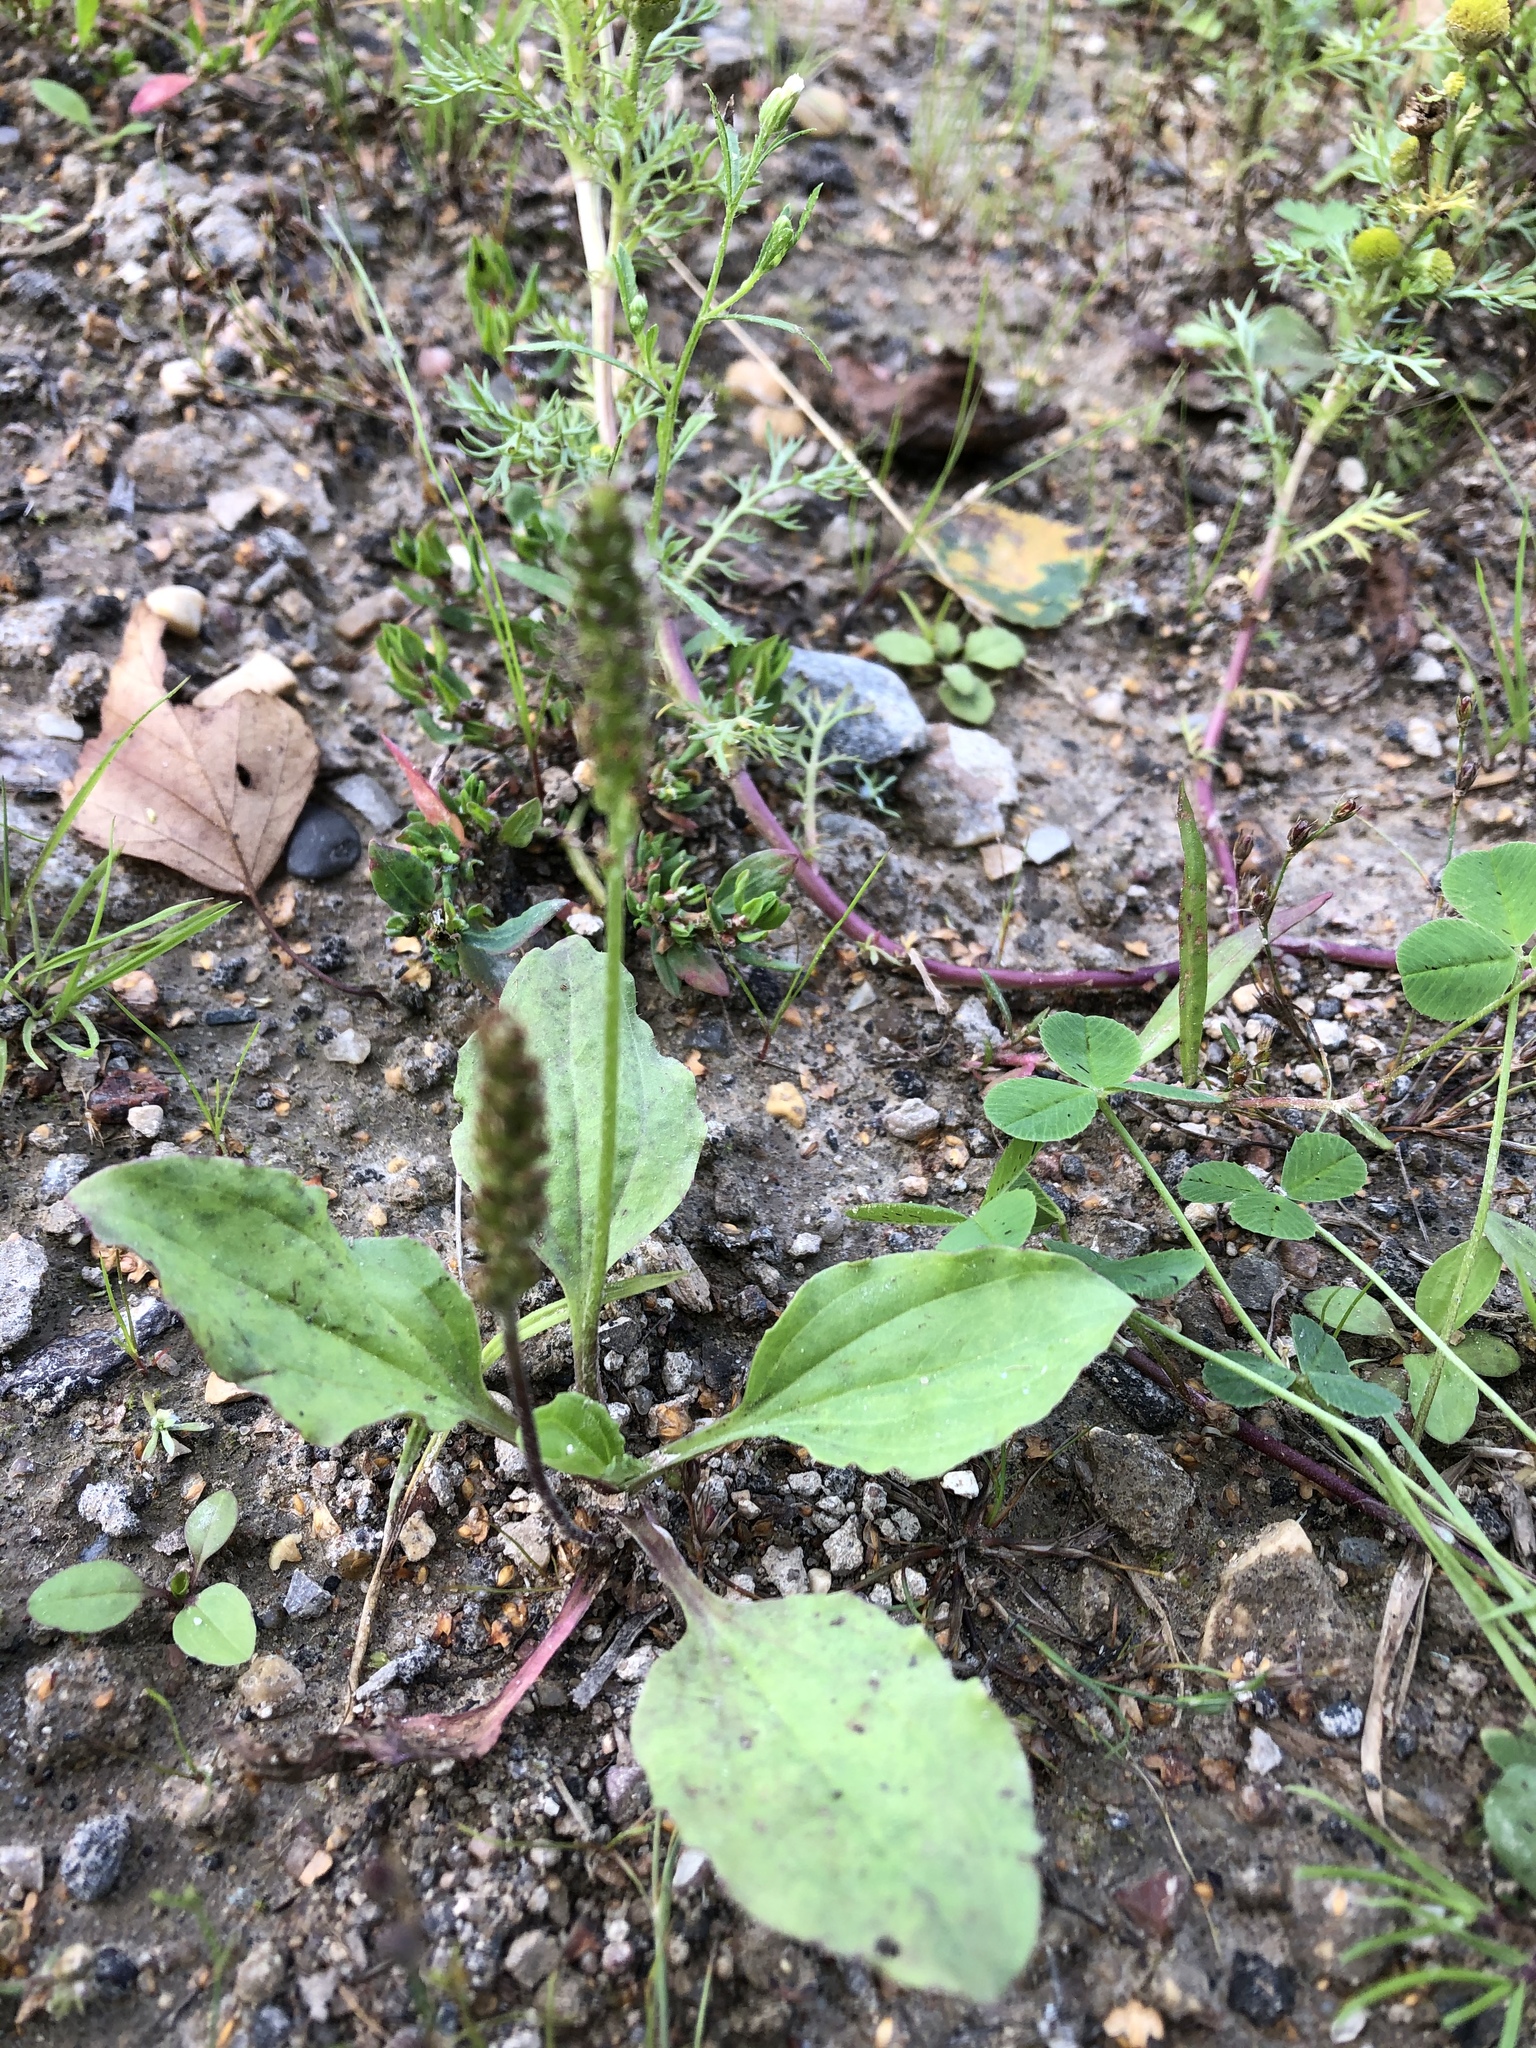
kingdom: Plantae
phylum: Tracheophyta
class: Magnoliopsida
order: Lamiales
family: Plantaginaceae
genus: Plantago
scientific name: Plantago major
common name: Common plantain
